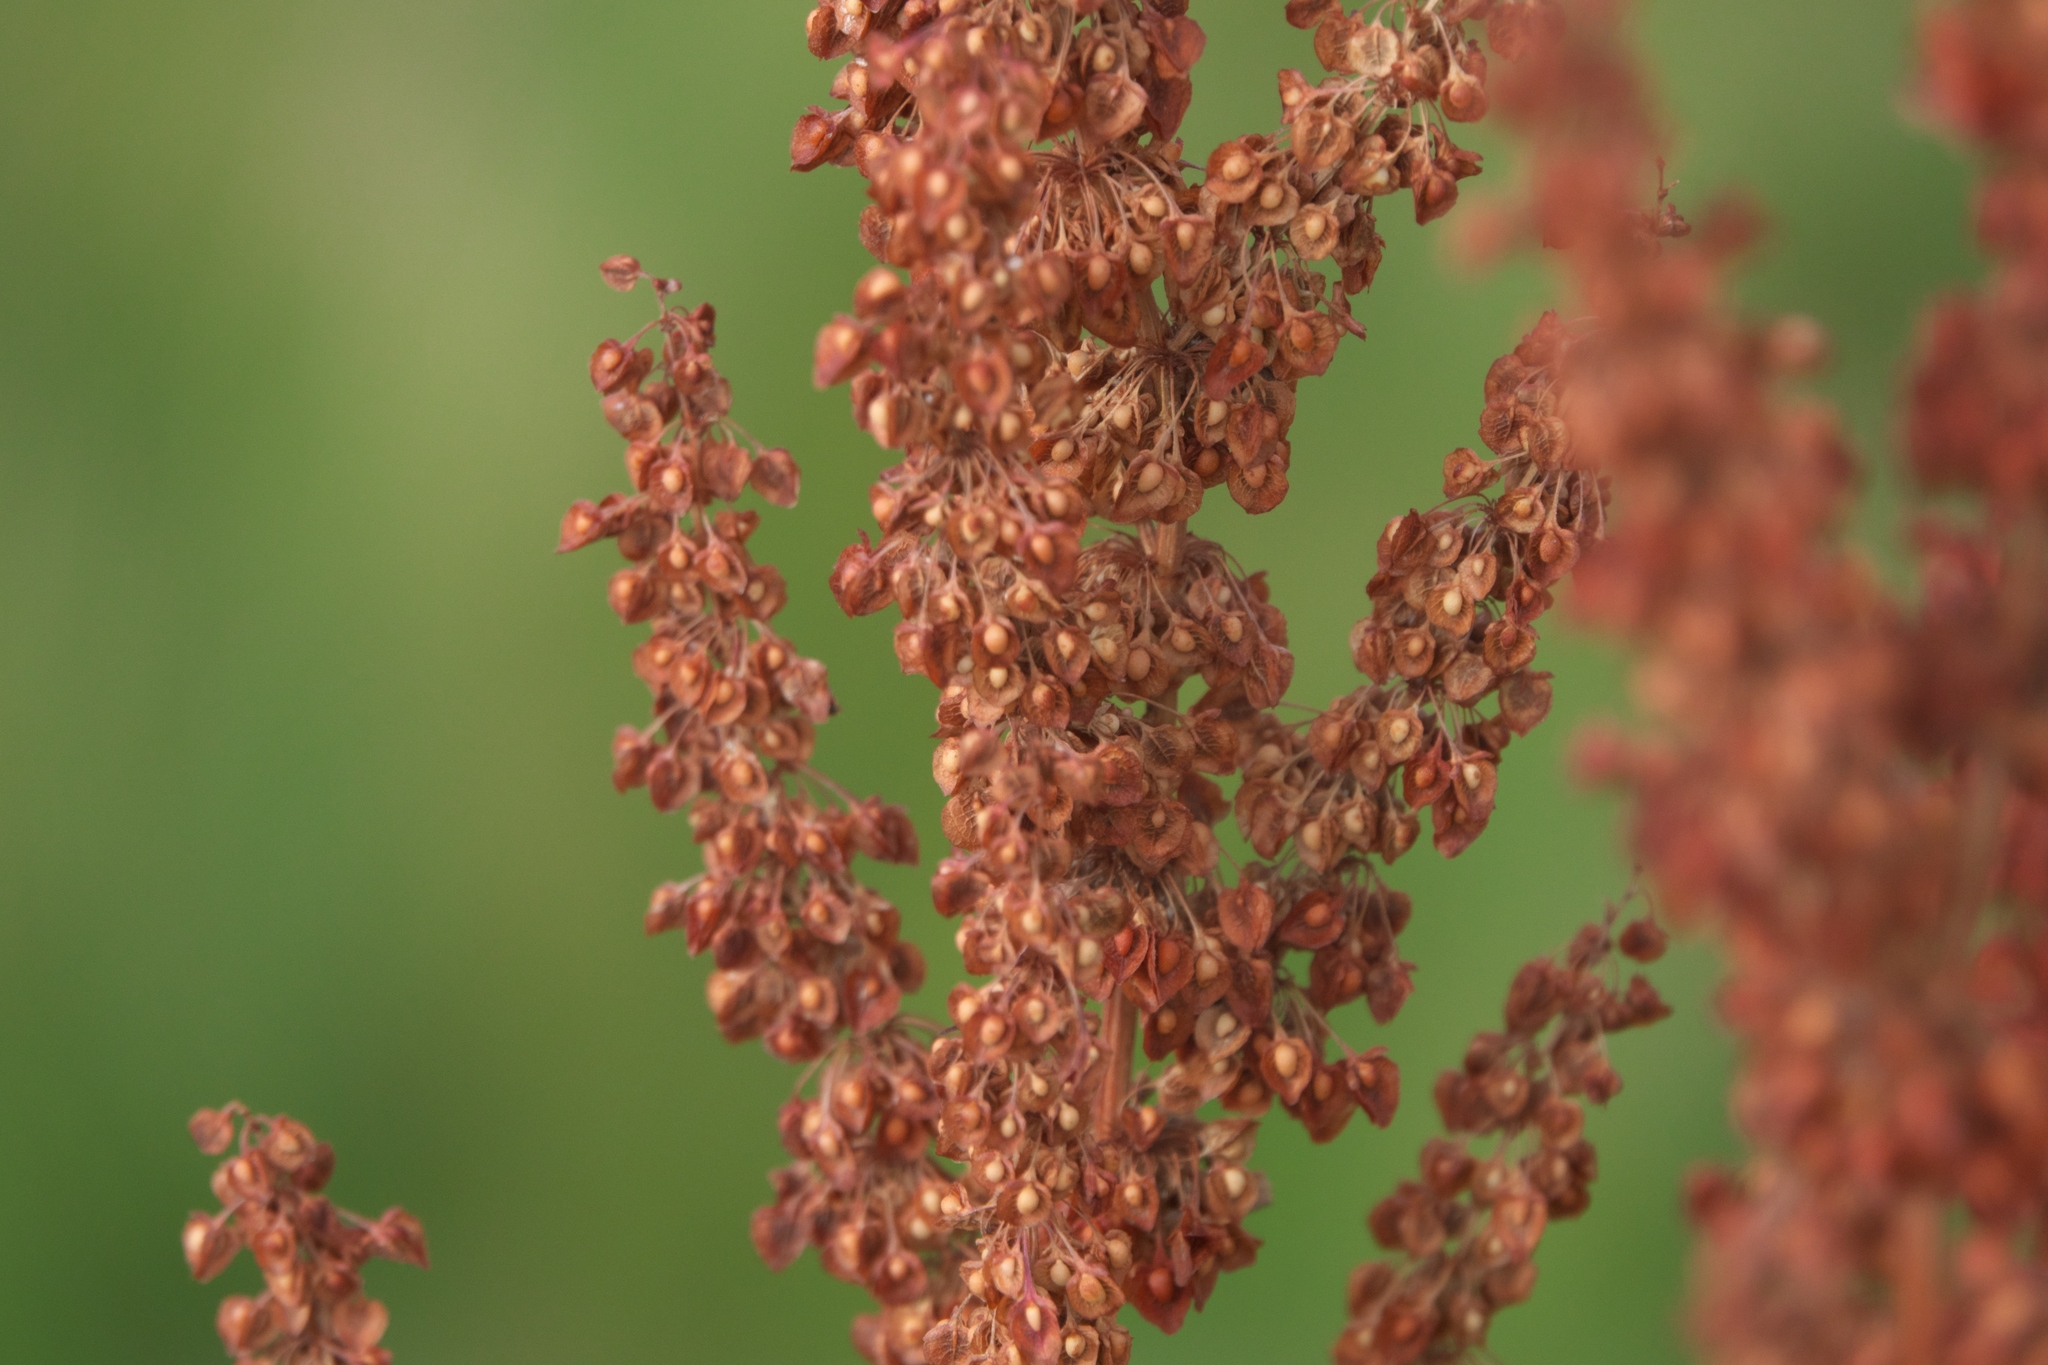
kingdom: Plantae
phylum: Tracheophyta
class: Magnoliopsida
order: Caryophyllales
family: Polygonaceae
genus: Rumex
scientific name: Rumex crispus
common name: Curled dock
